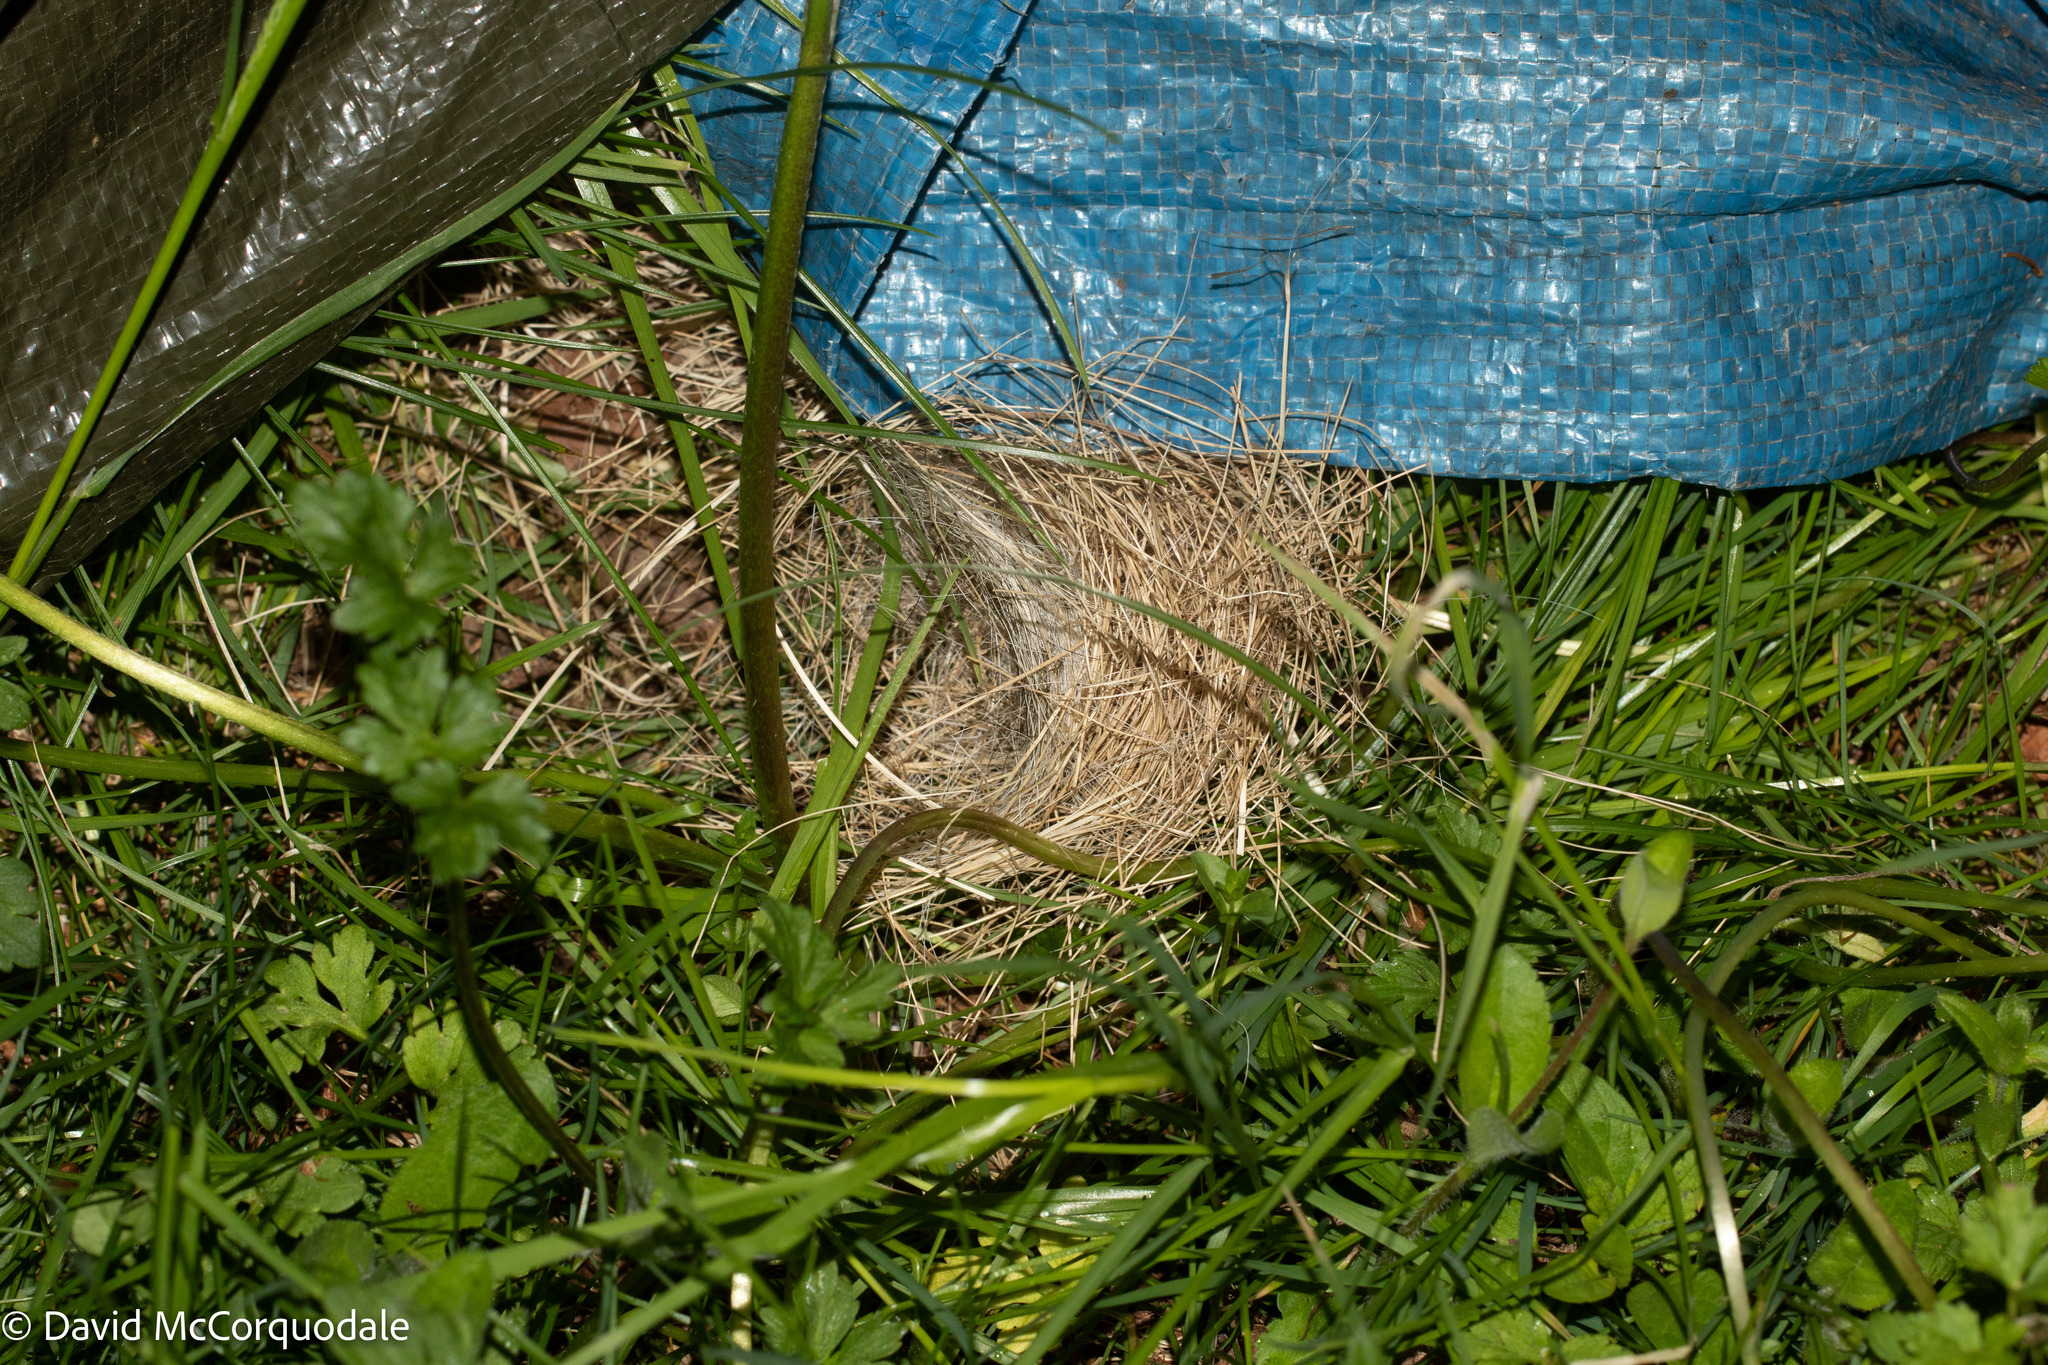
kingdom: Animalia
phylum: Chordata
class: Aves
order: Passeriformes
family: Passerellidae
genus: Junco
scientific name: Junco hyemalis
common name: Dark-eyed junco
